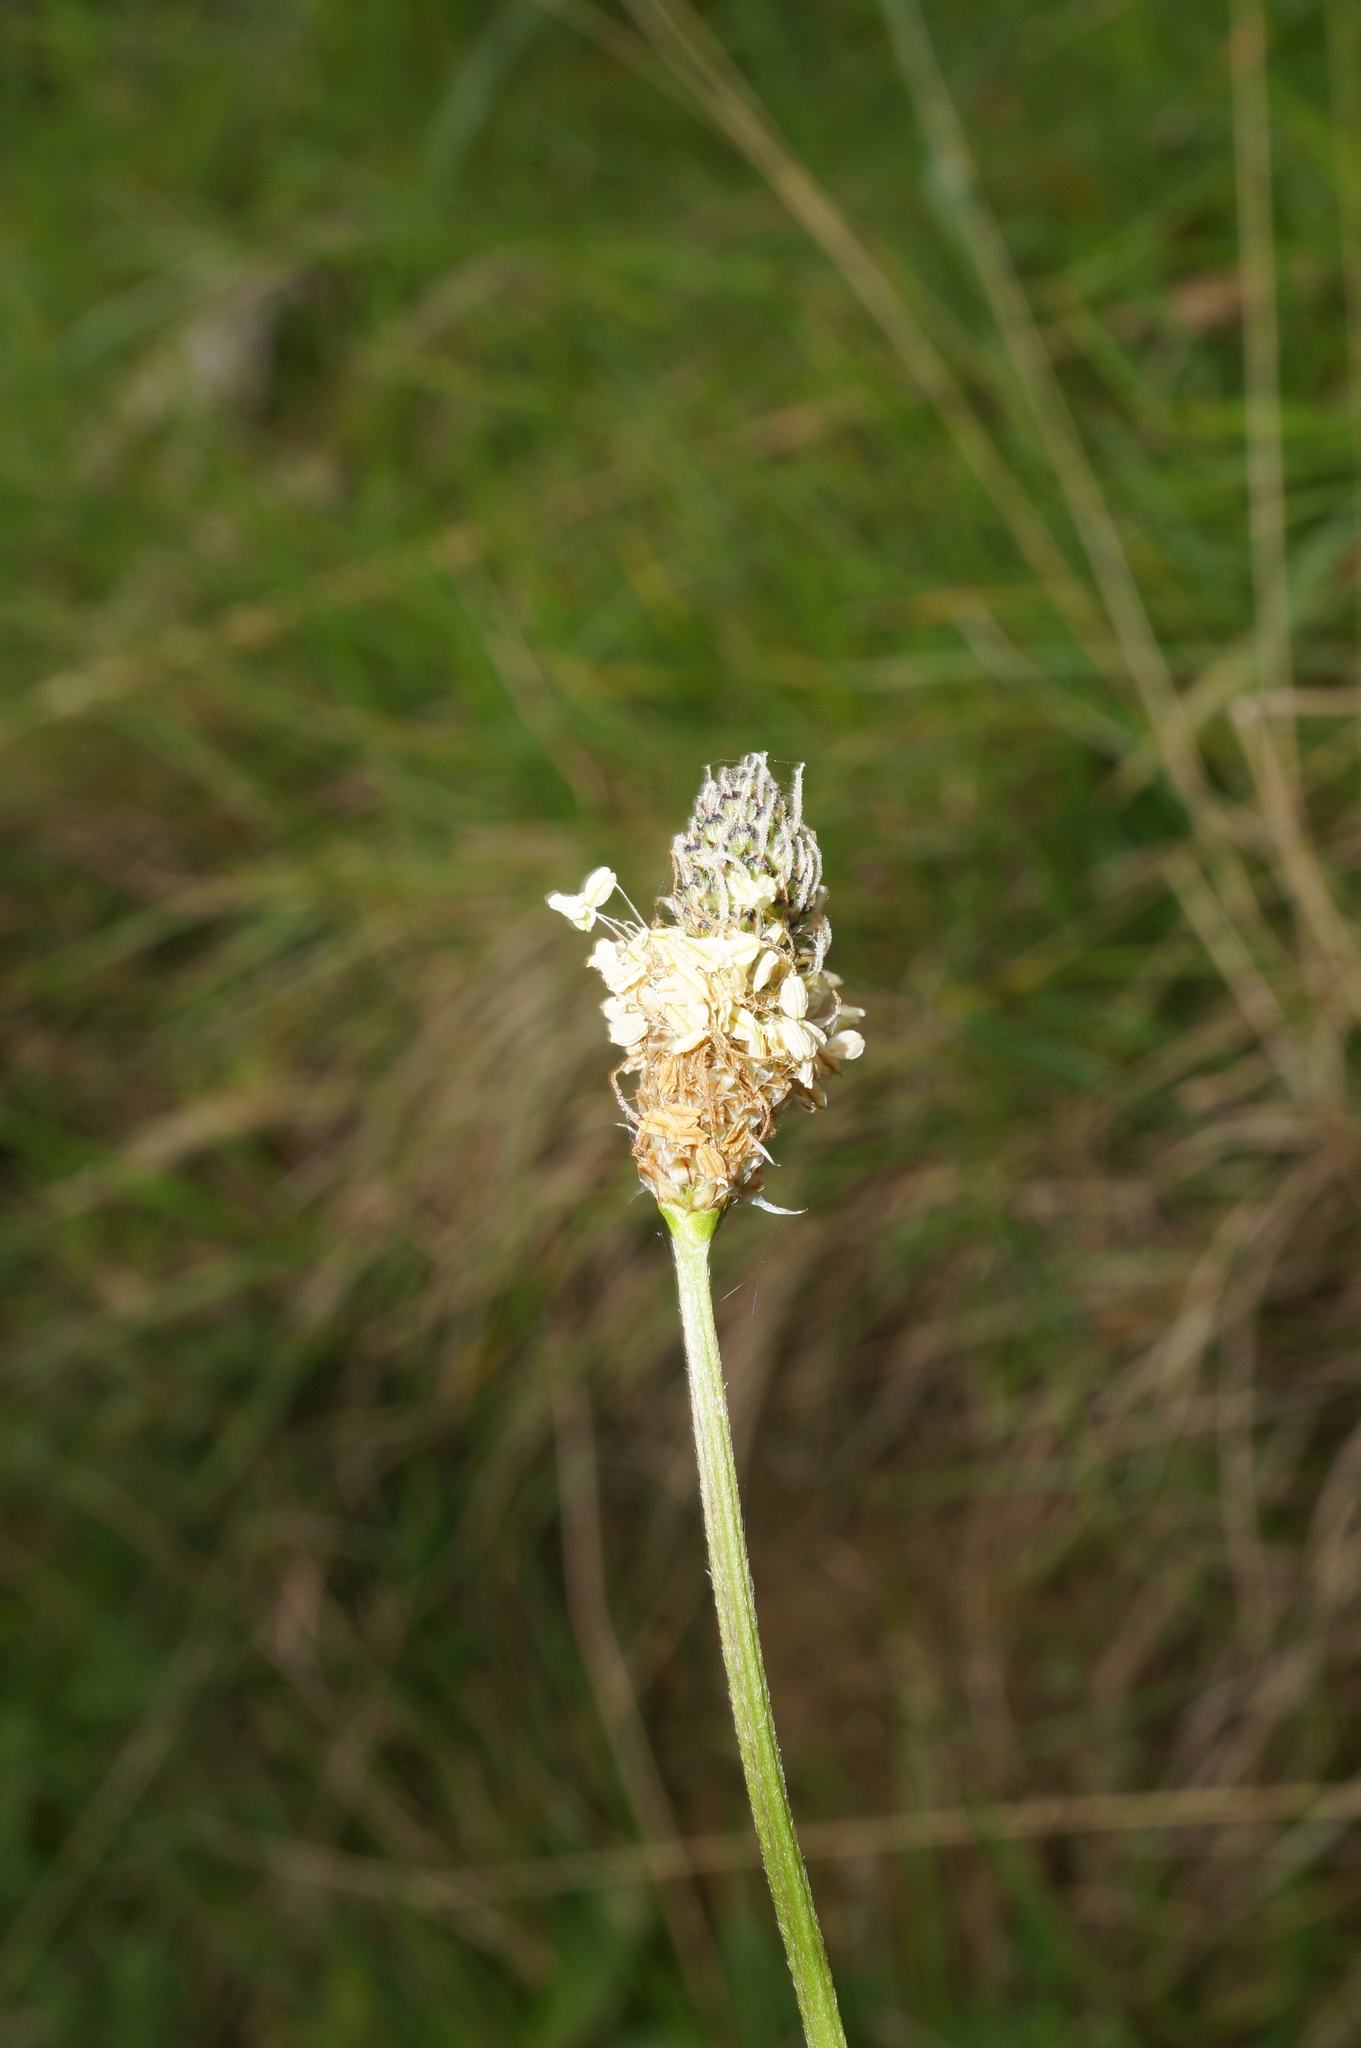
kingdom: Plantae
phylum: Tracheophyta
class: Magnoliopsida
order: Lamiales
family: Plantaginaceae
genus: Plantago
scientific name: Plantago lanceolata
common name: Ribwort plantain
